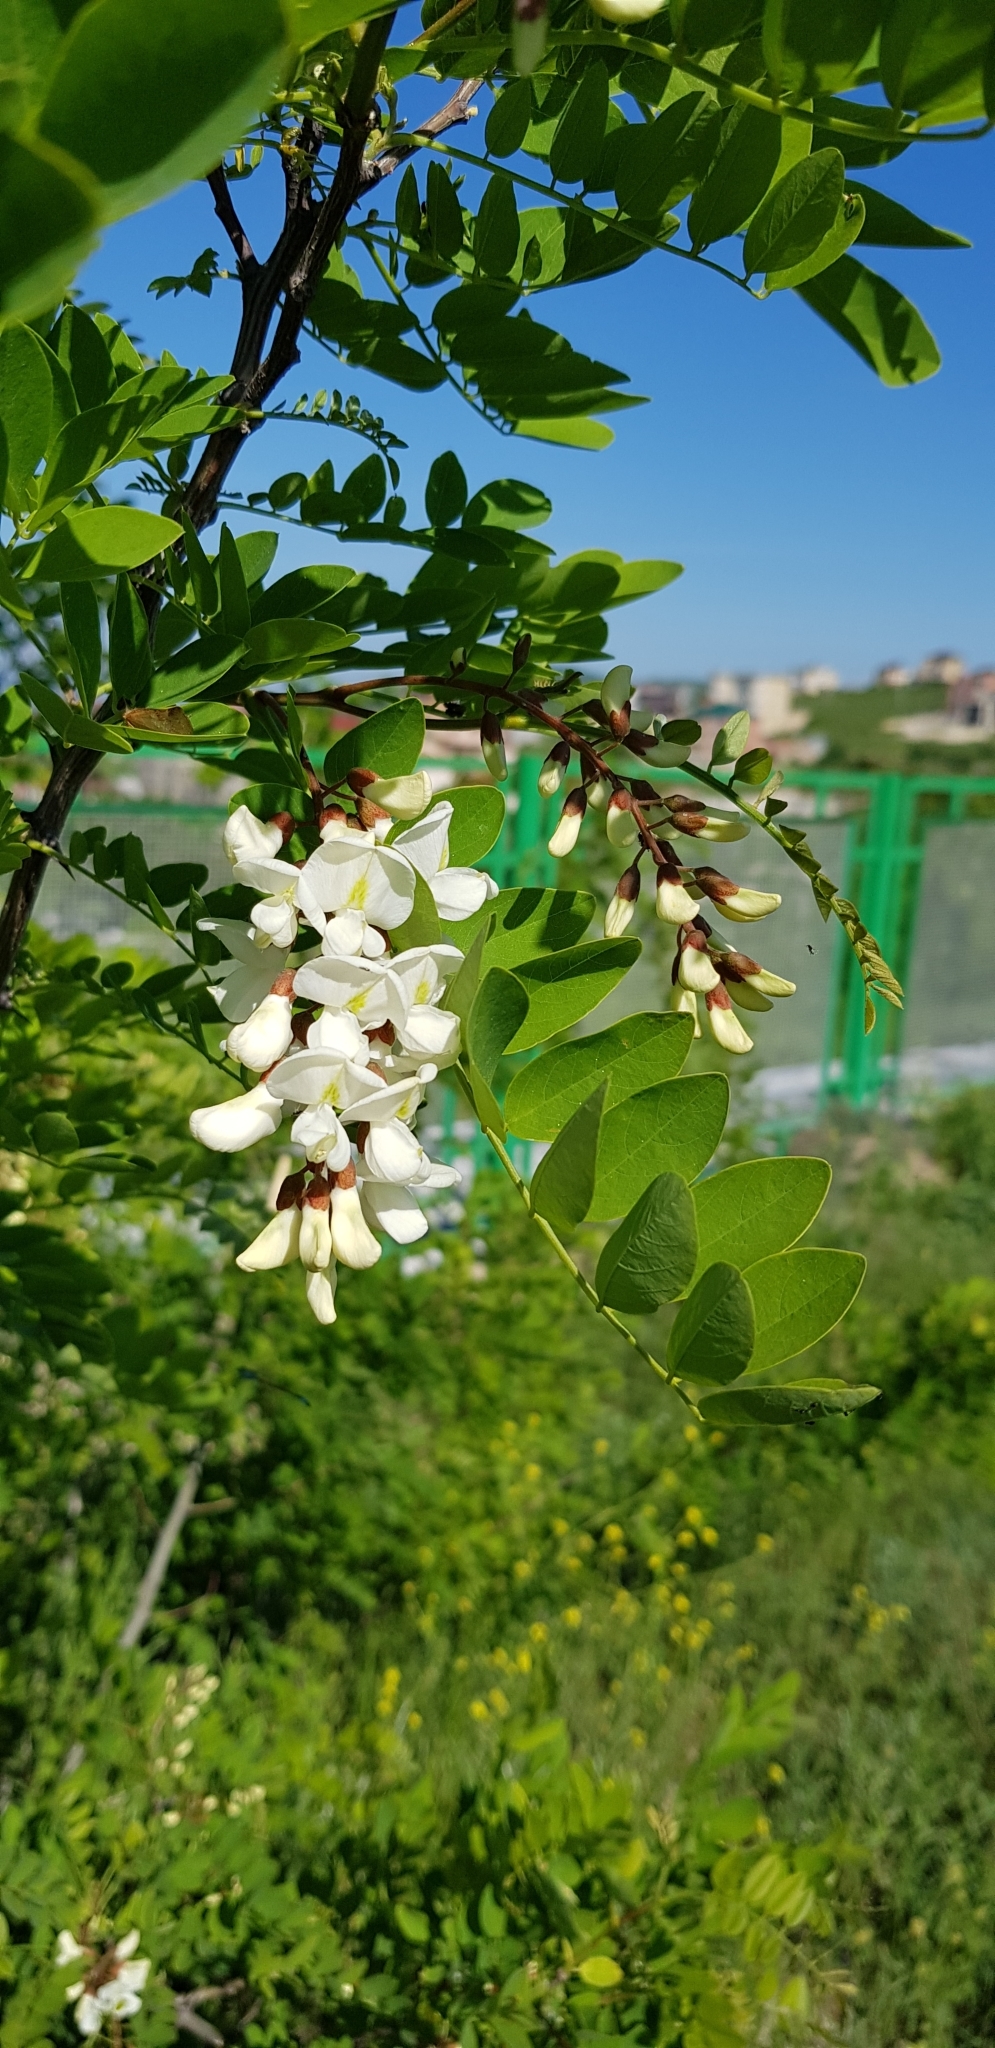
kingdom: Plantae
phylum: Tracheophyta
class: Magnoliopsida
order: Fabales
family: Fabaceae
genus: Robinia
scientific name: Robinia pseudoacacia
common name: Black locust
